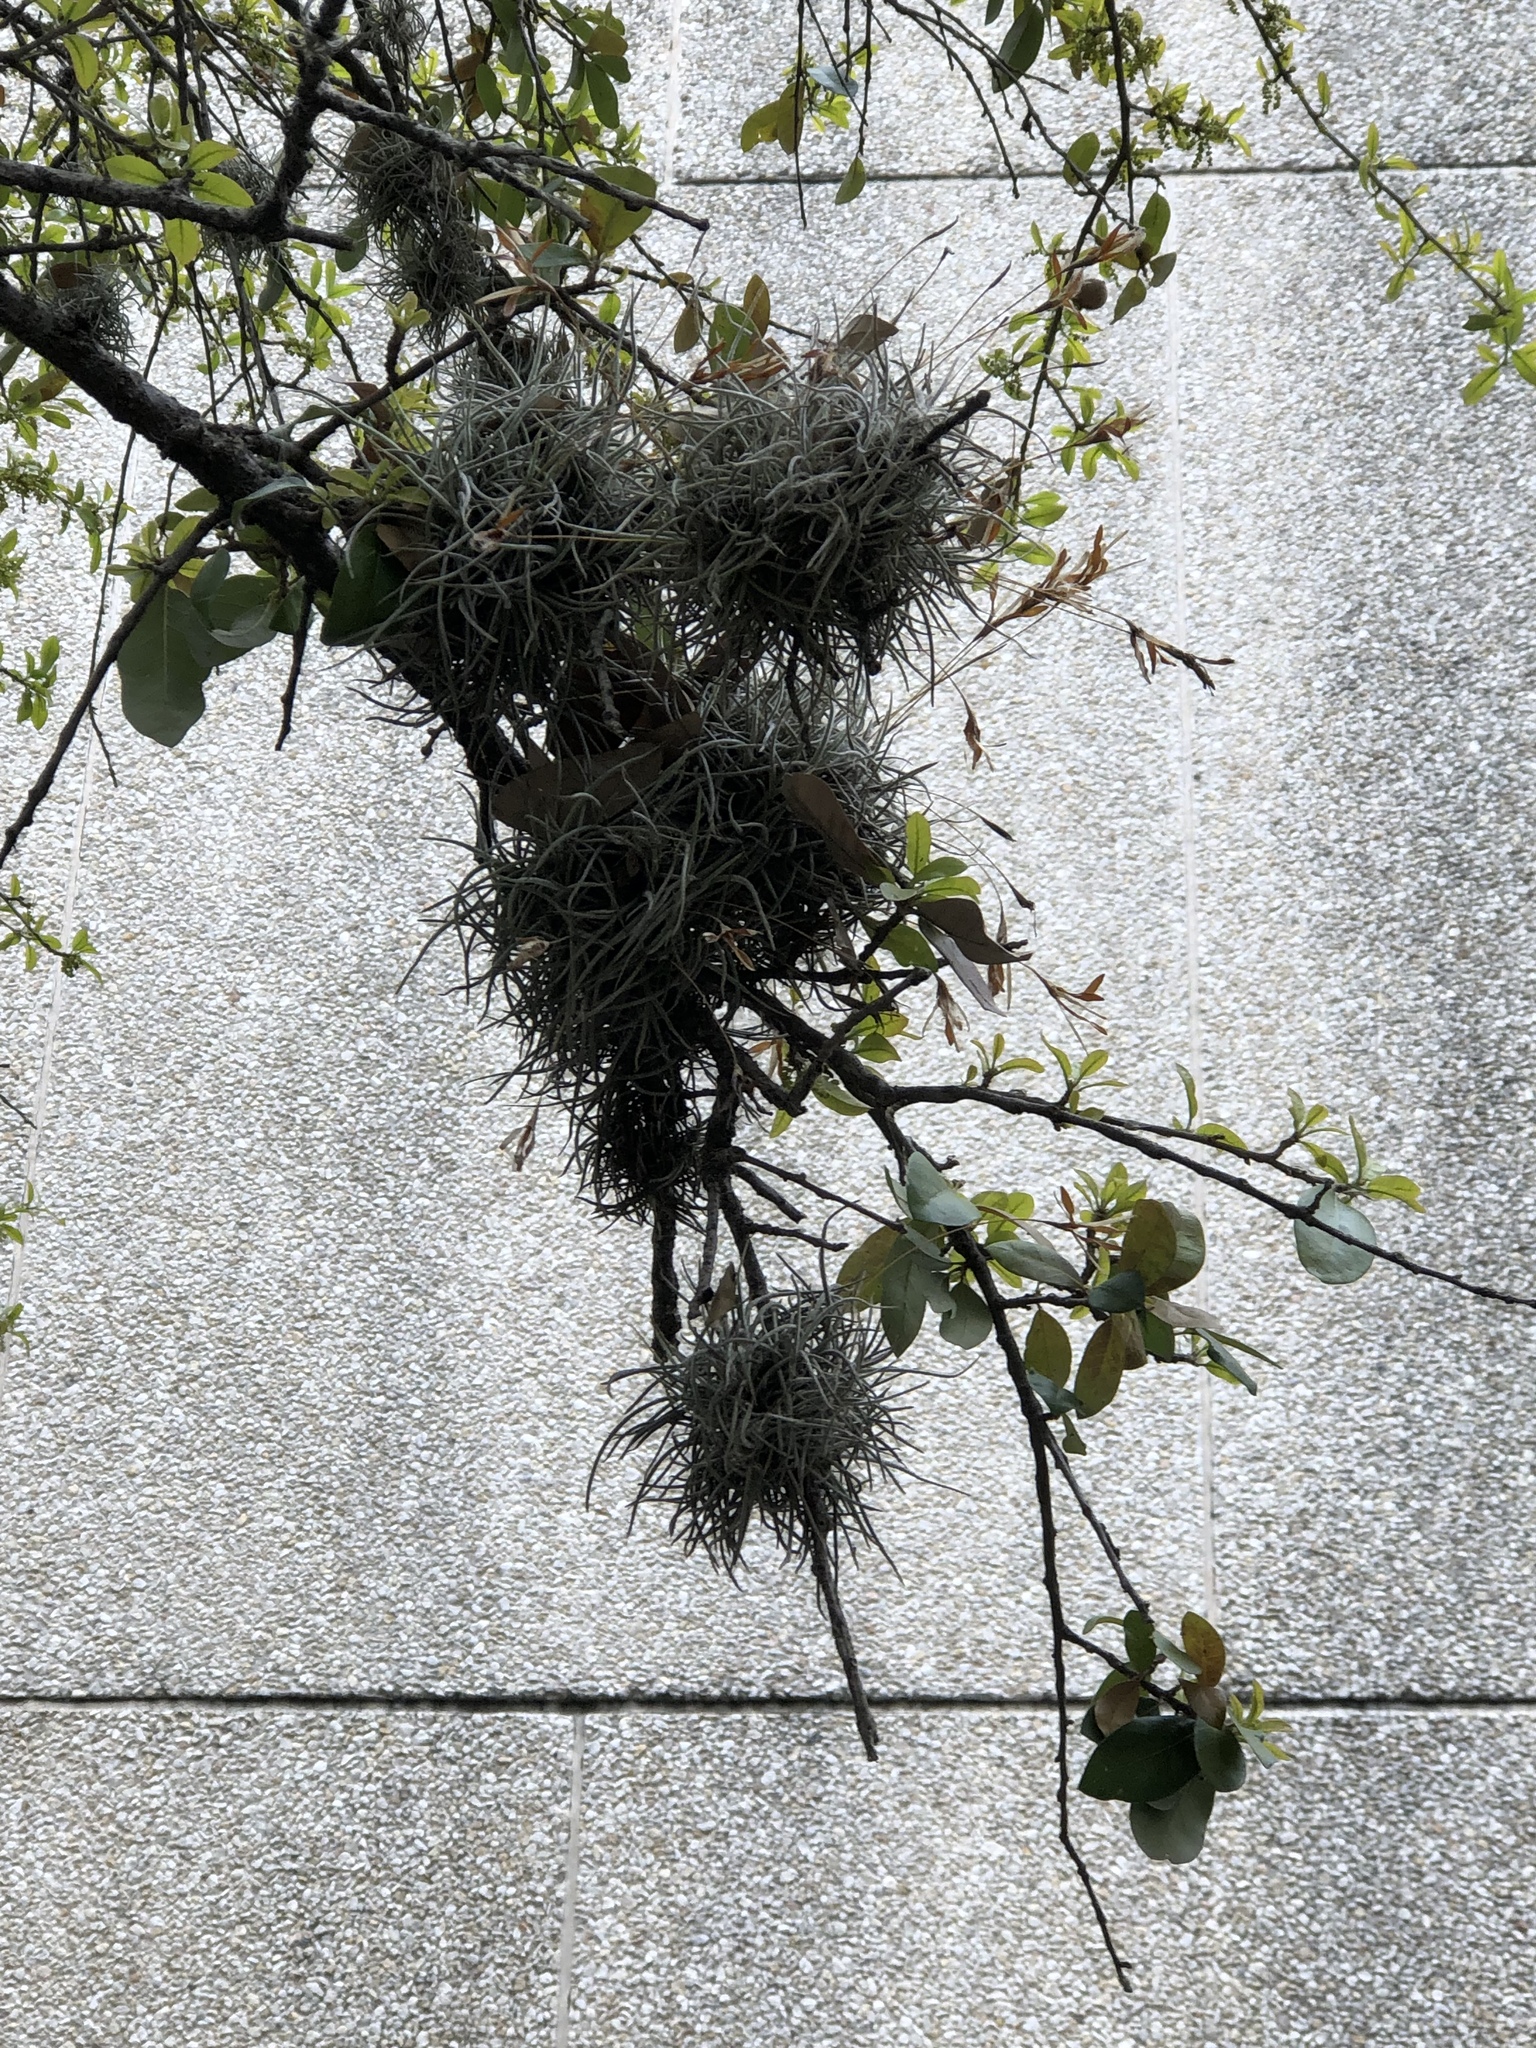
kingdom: Plantae
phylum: Tracheophyta
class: Liliopsida
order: Poales
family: Bromeliaceae
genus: Tillandsia
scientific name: Tillandsia recurvata
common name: Small ballmoss
